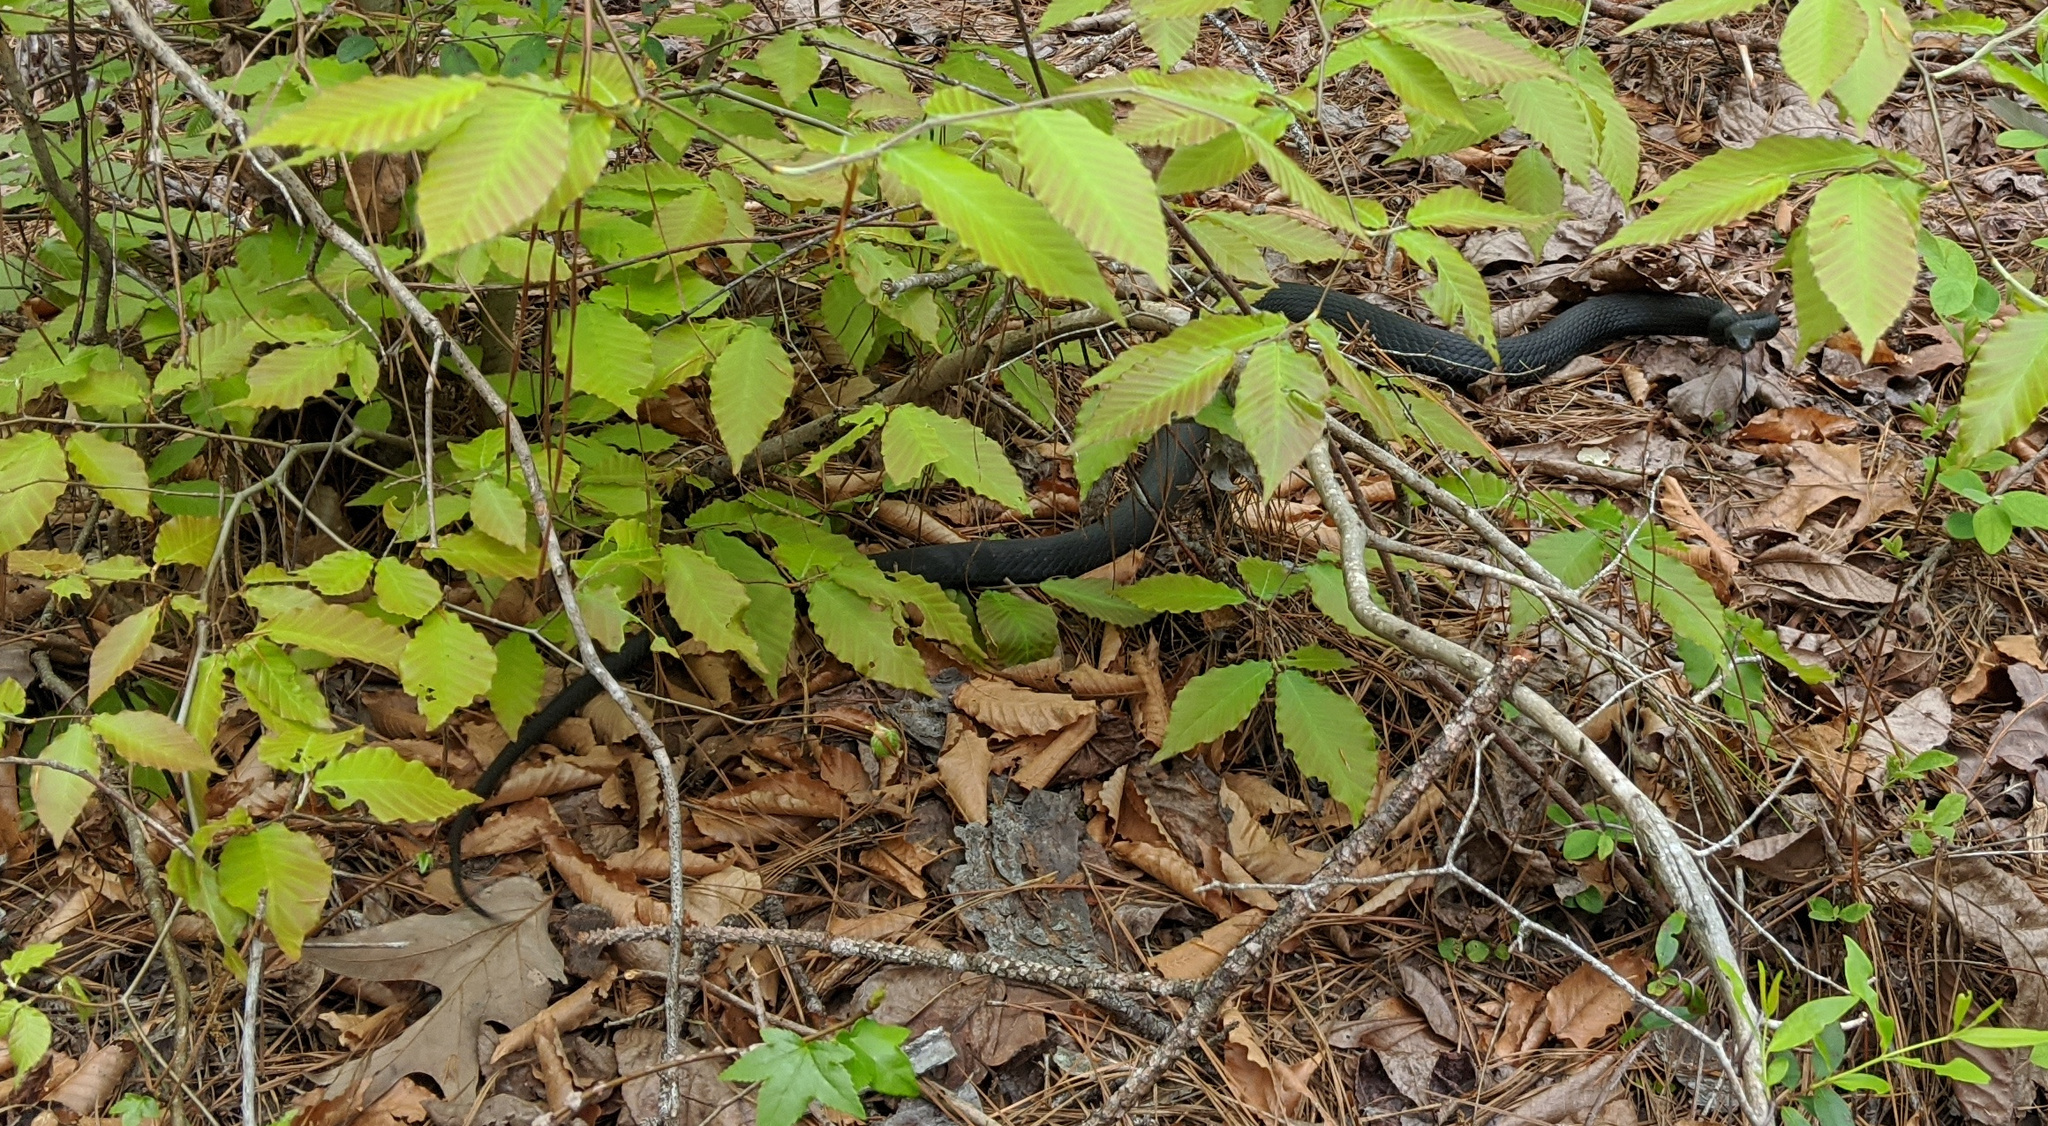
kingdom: Animalia
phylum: Chordata
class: Squamata
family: Colubridae
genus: Coluber
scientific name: Coluber constrictor
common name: Eastern racer
